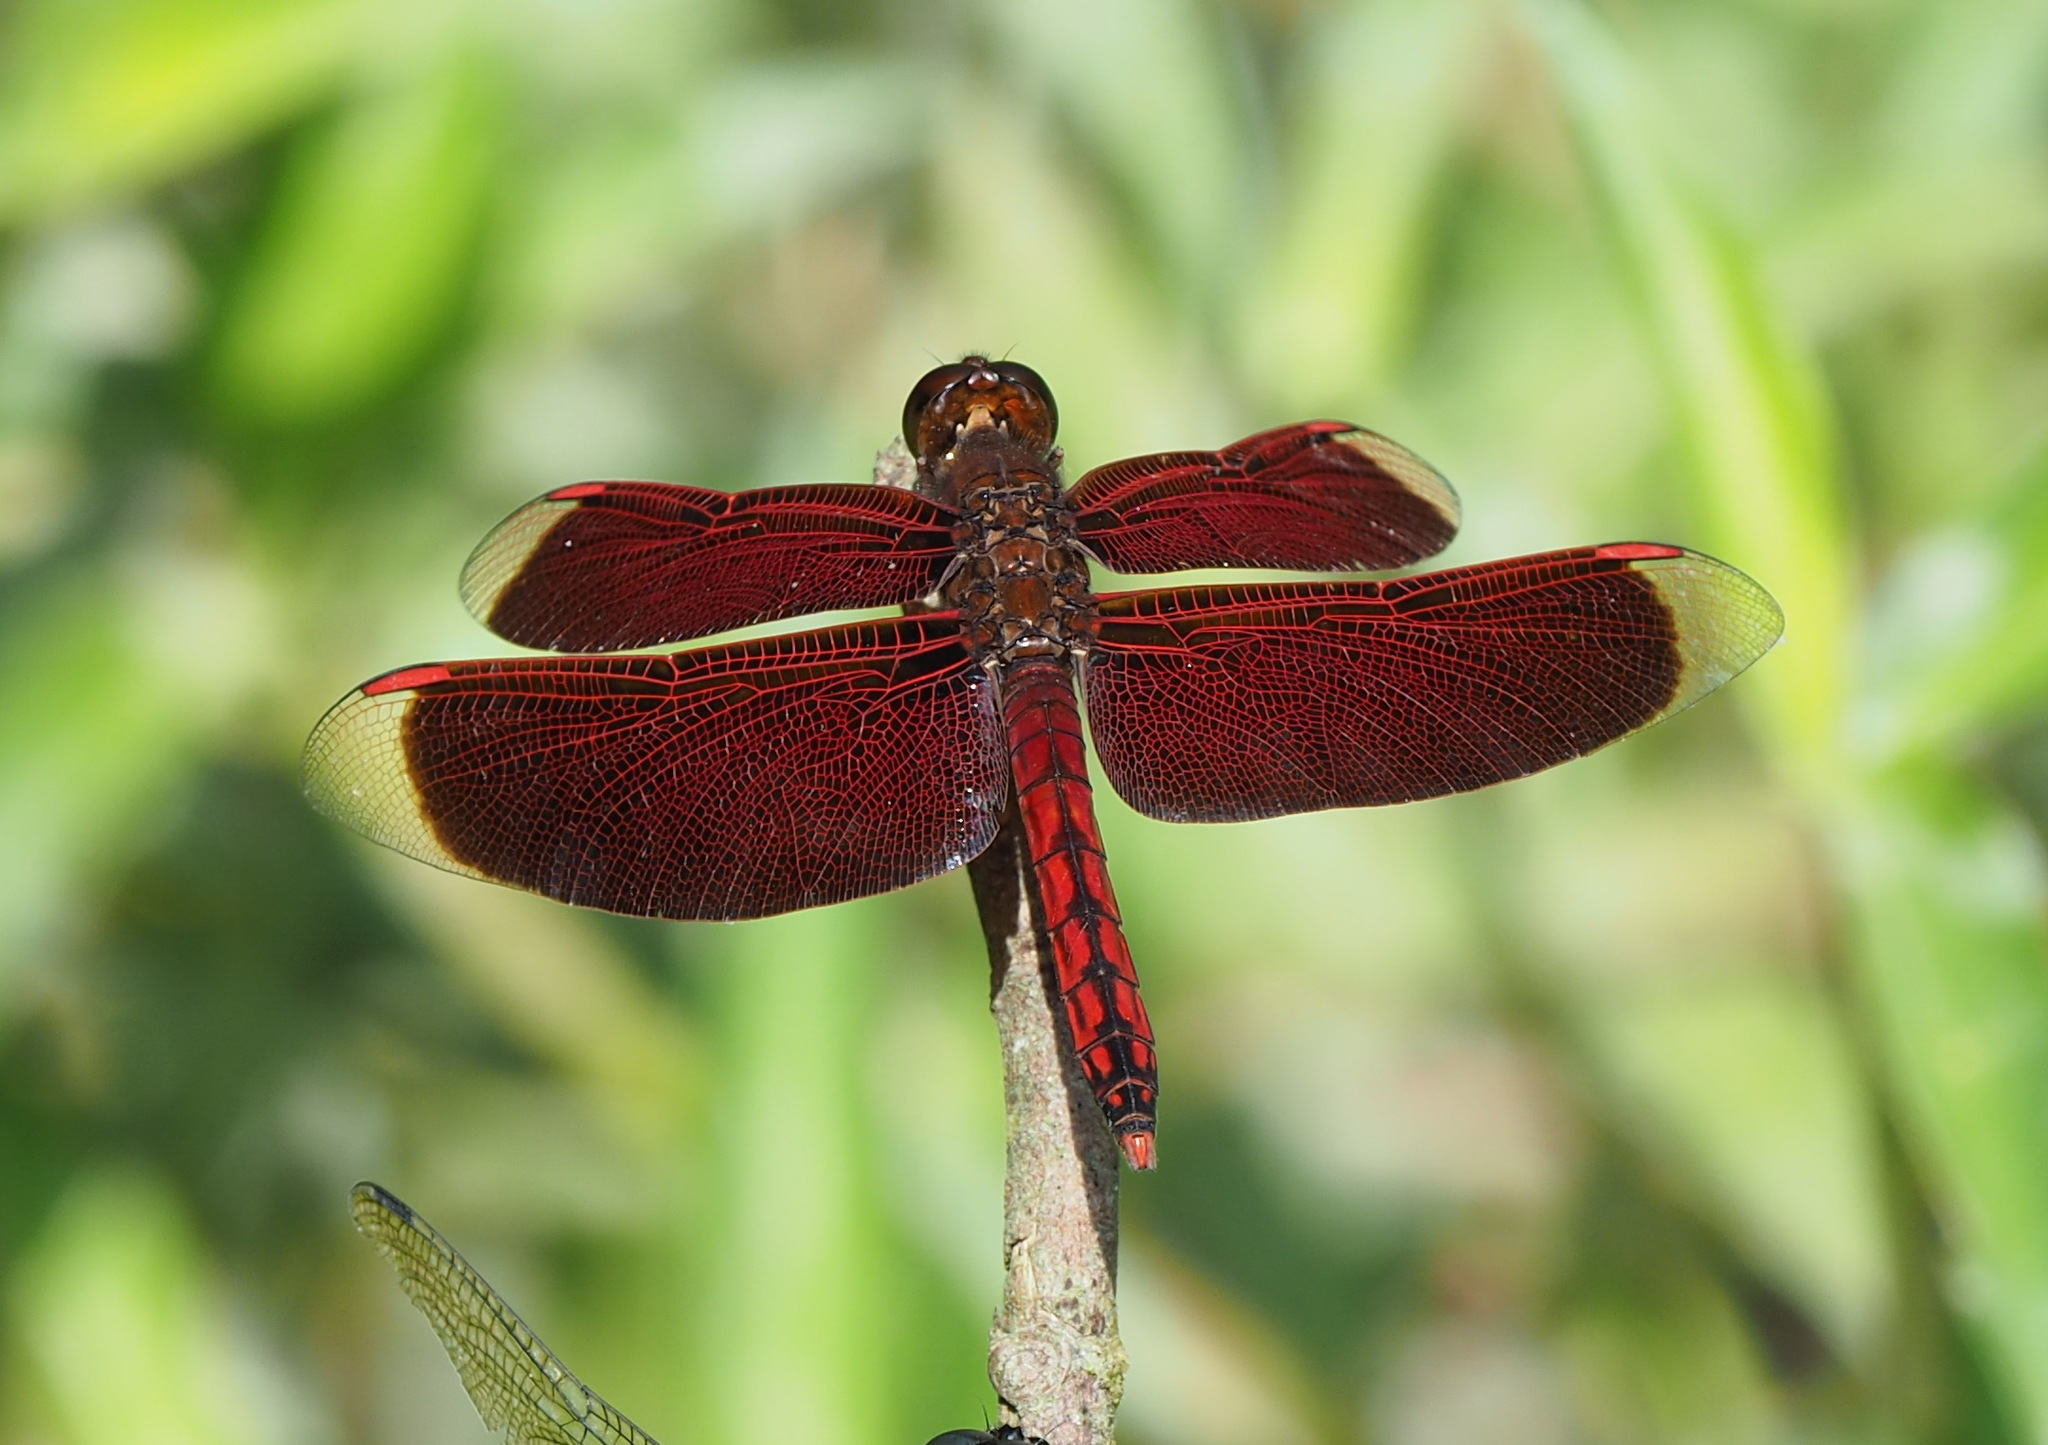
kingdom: Animalia
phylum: Arthropoda
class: Insecta
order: Odonata
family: Libellulidae
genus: Neurothemis
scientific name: Neurothemis taiwanensis
